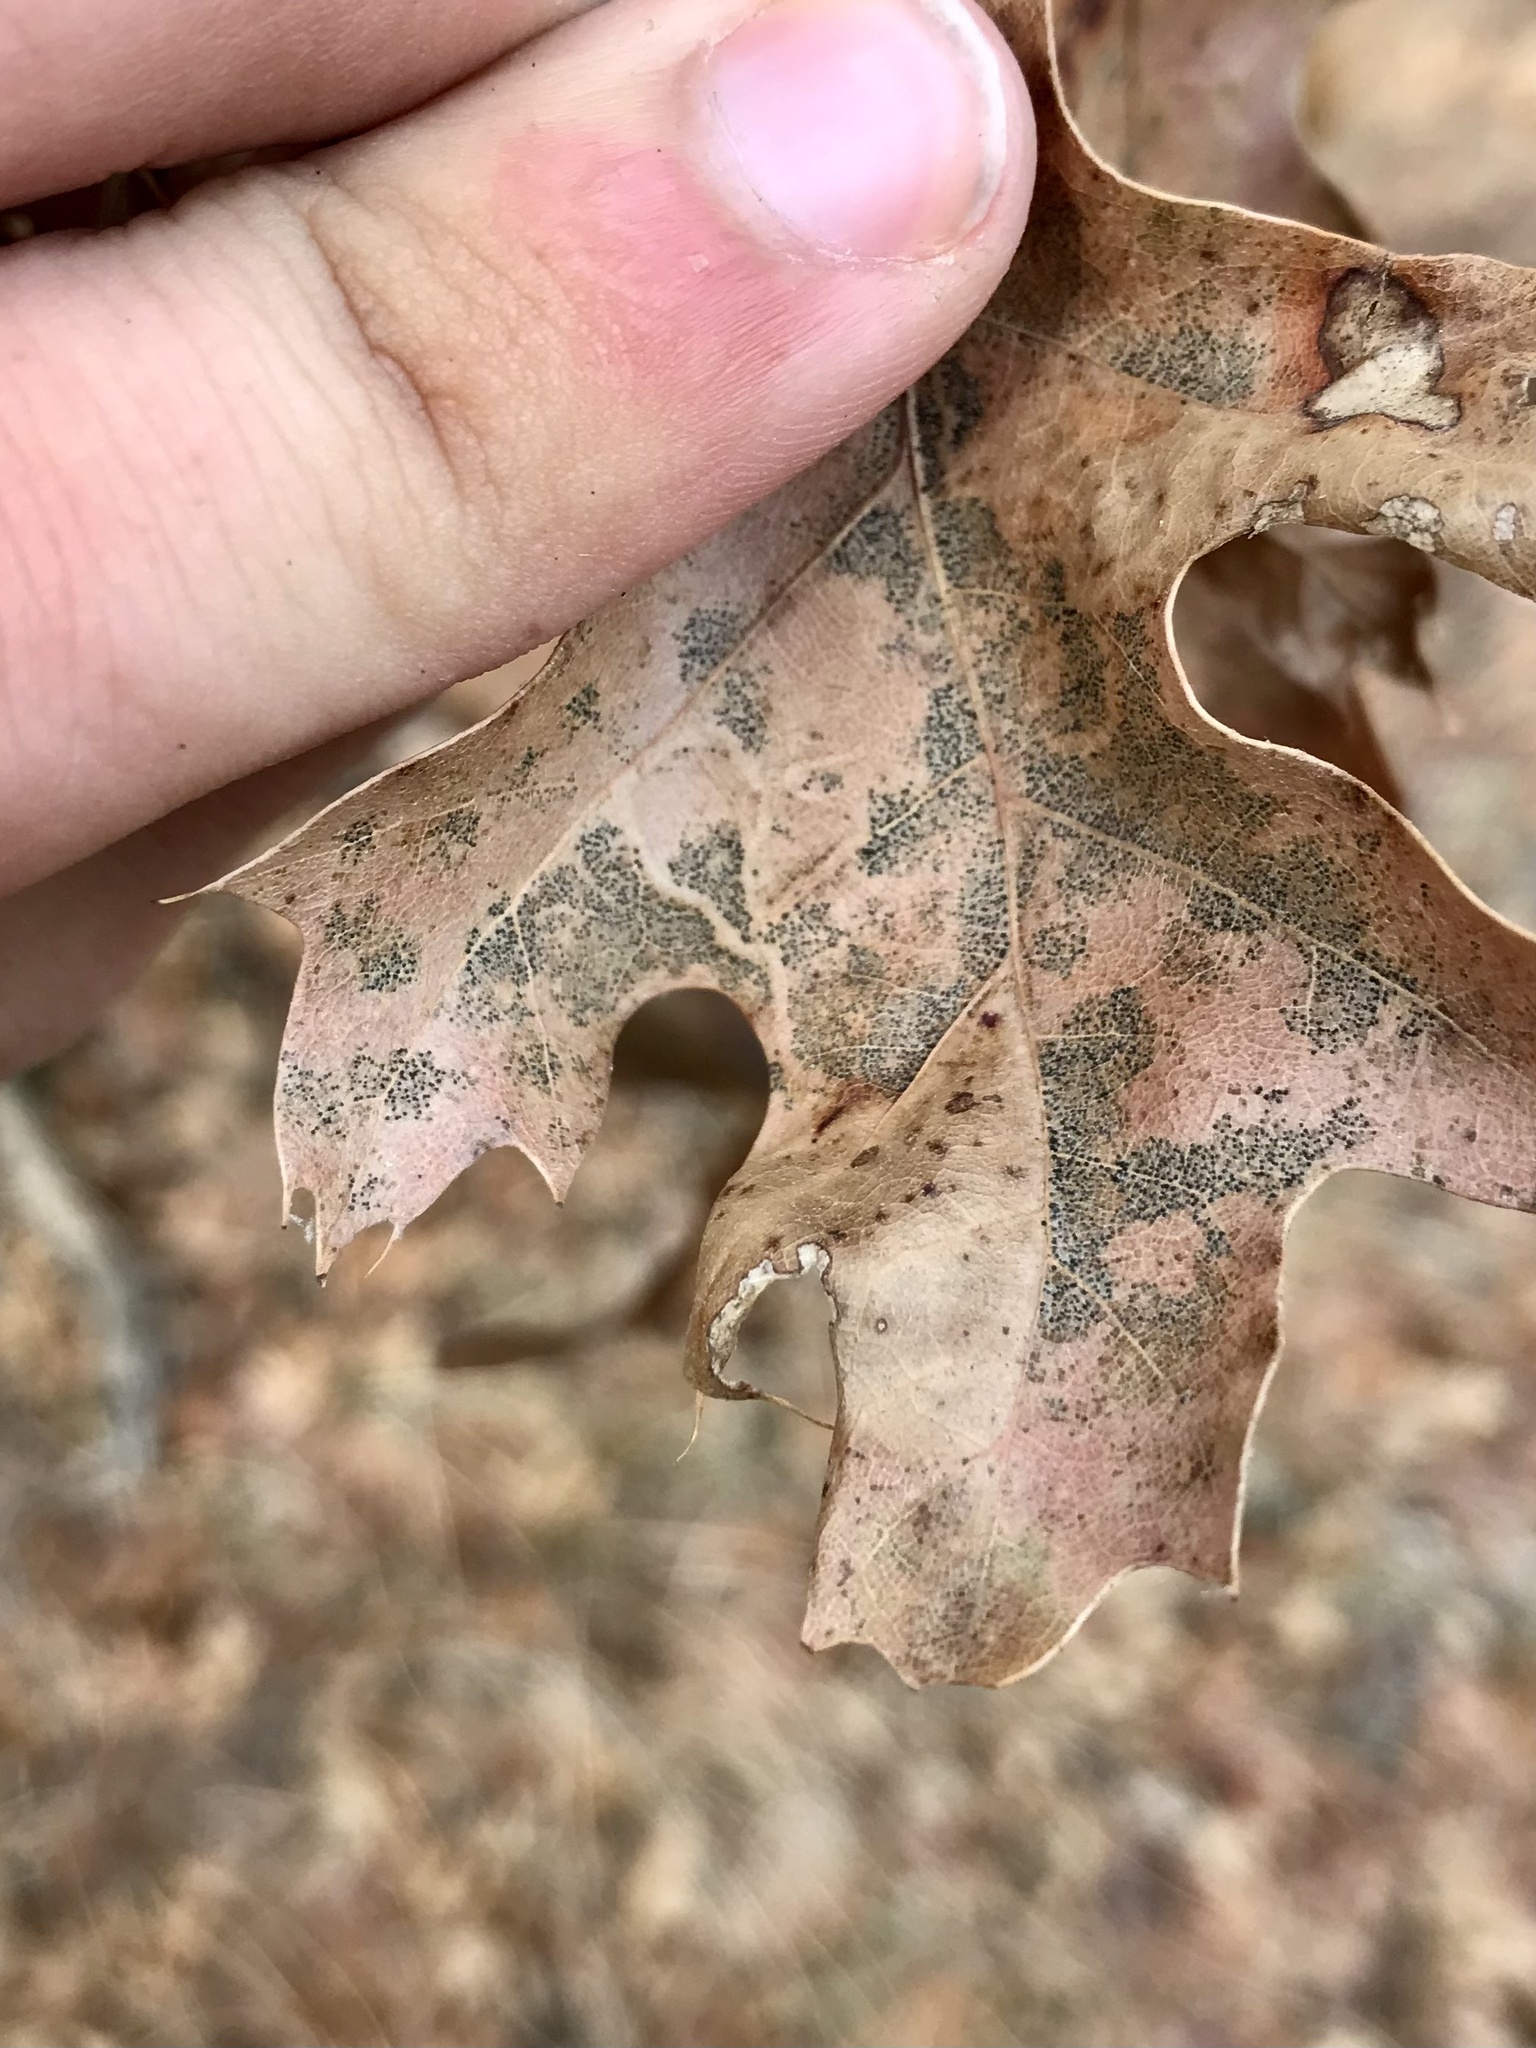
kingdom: Animalia
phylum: Arthropoda
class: Insecta
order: Lepidoptera
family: Gracillariidae
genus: Acrocercops
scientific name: Acrocercops albinatella
